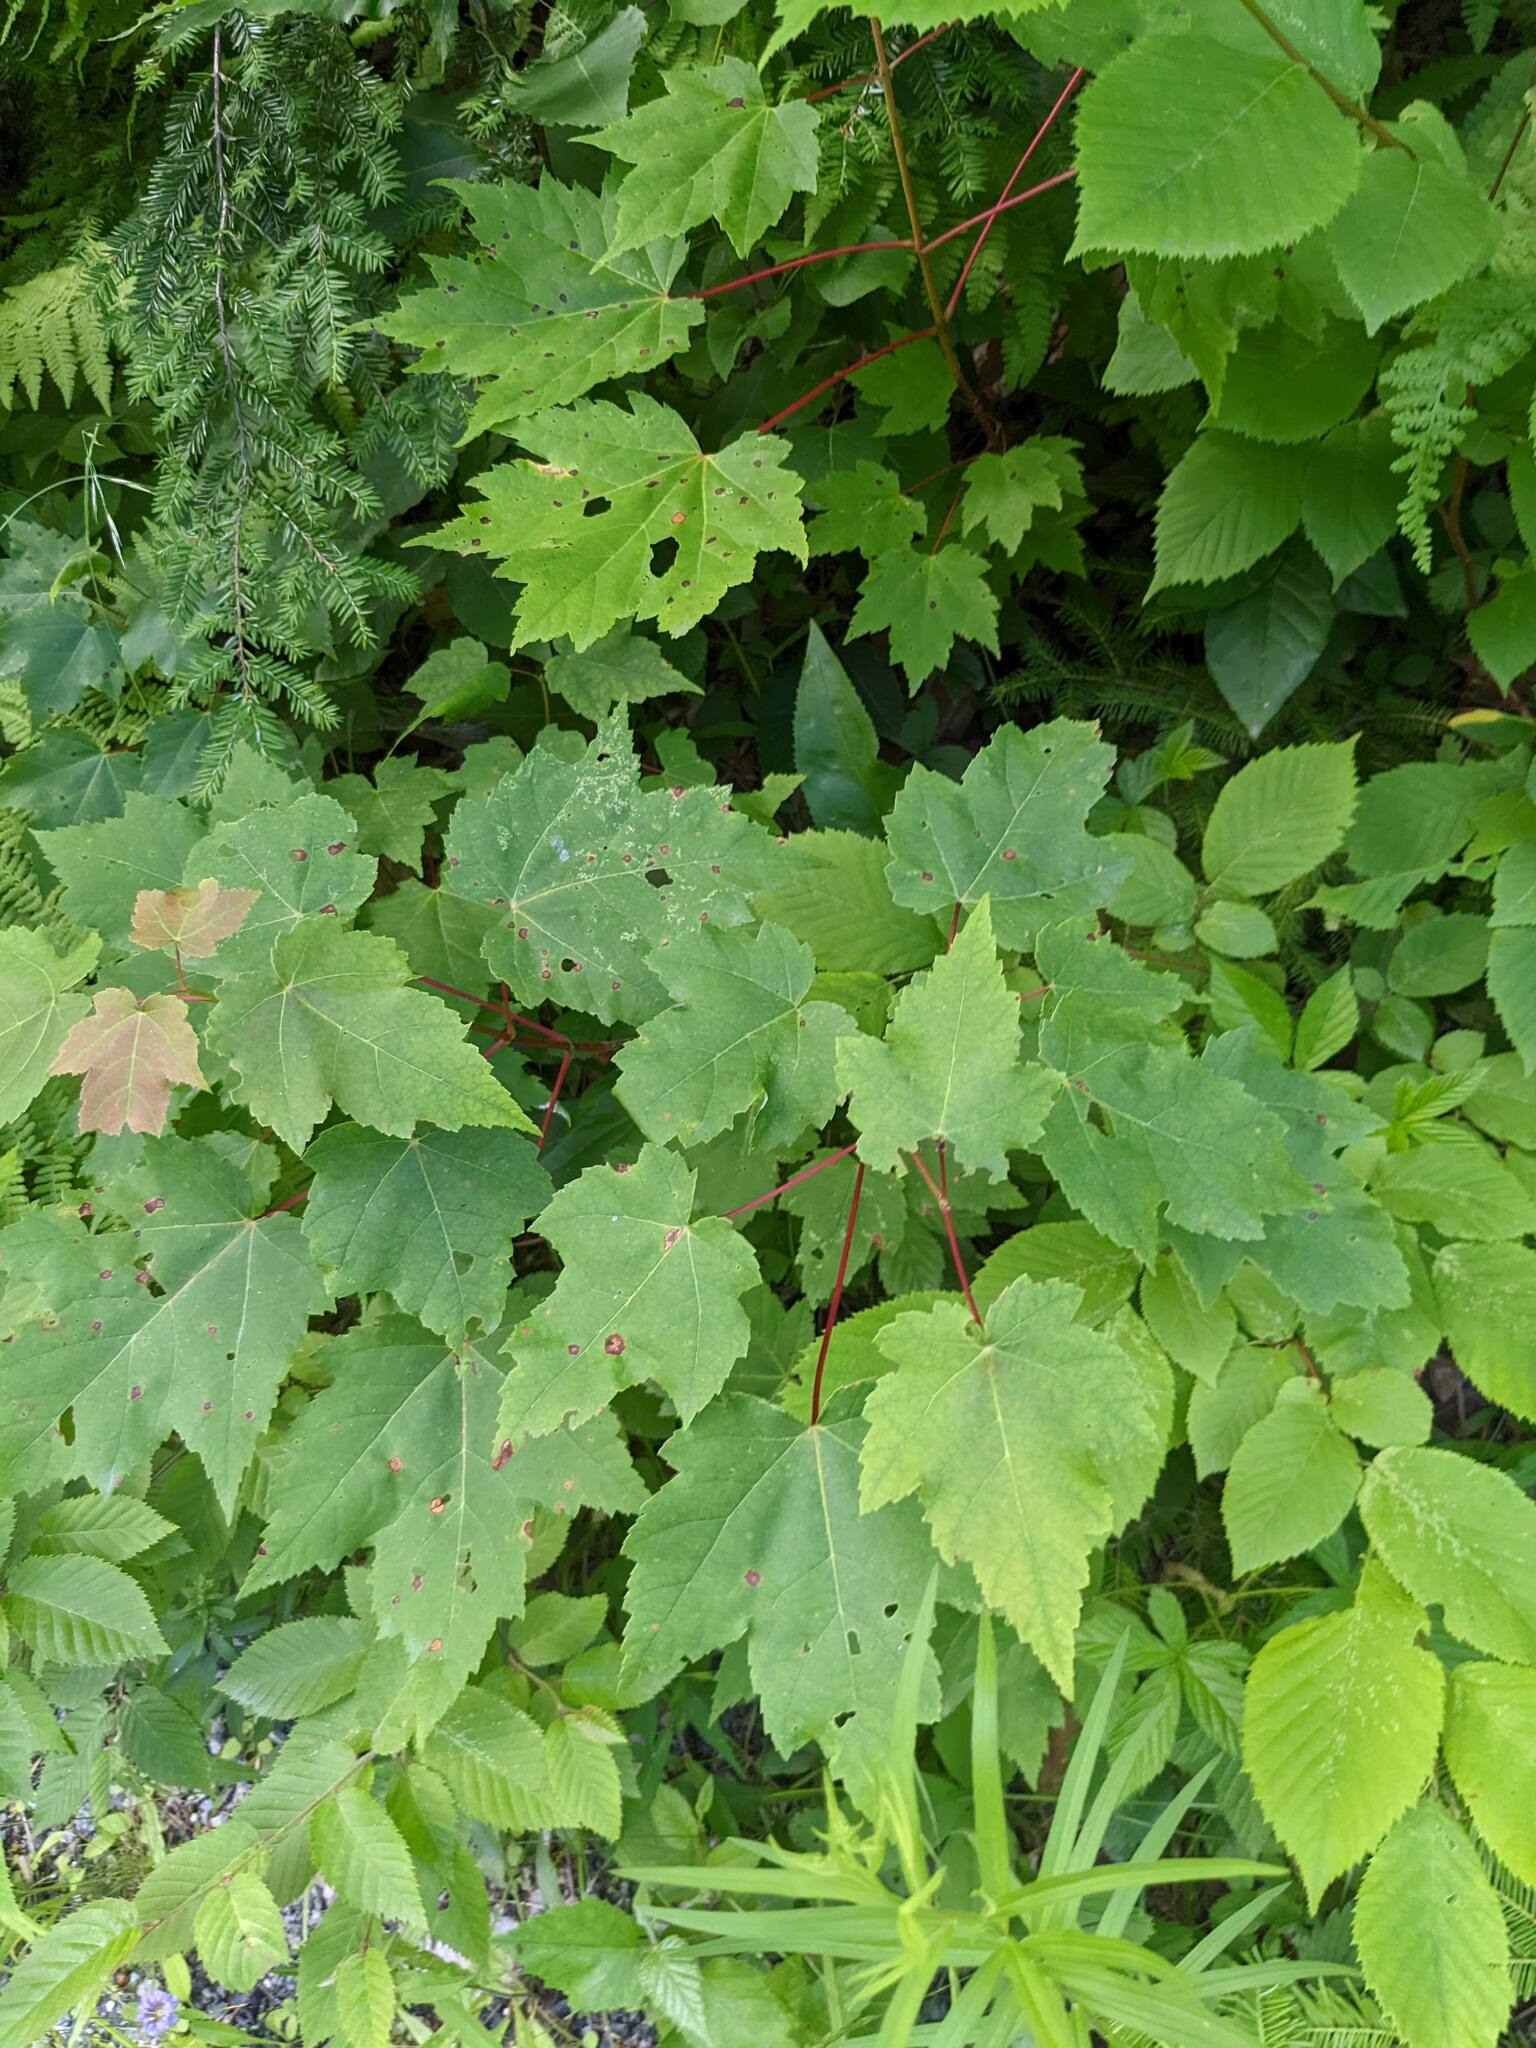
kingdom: Plantae
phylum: Tracheophyta
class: Magnoliopsida
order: Sapindales
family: Sapindaceae
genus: Acer
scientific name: Acer rubrum
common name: Red maple
